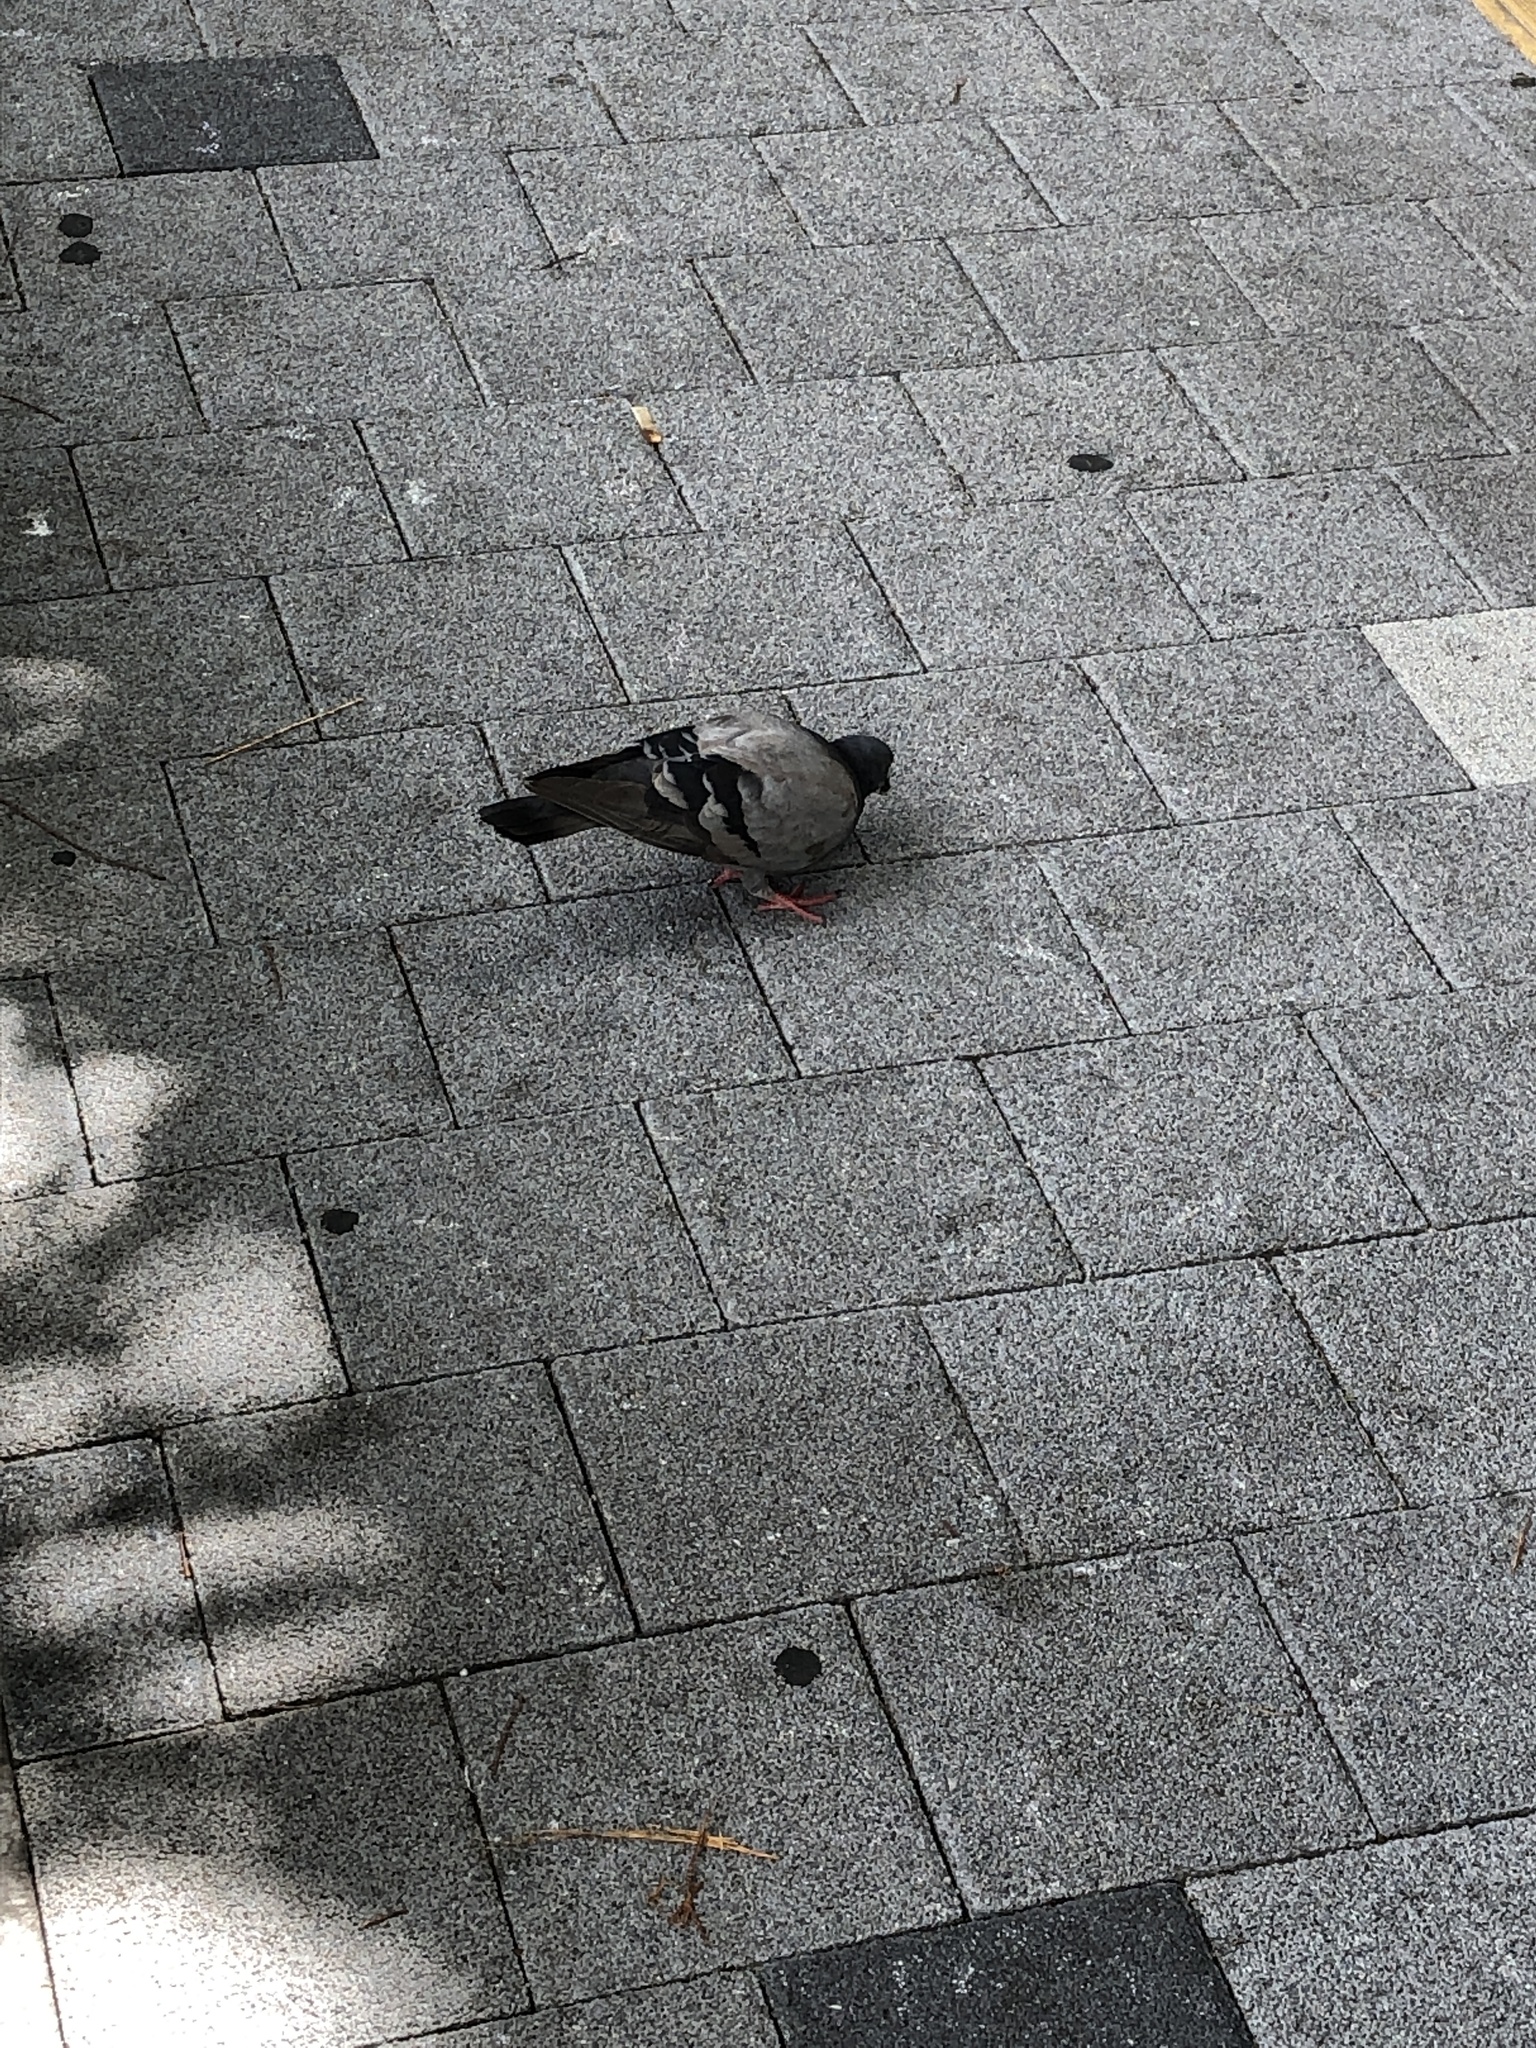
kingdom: Animalia
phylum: Chordata
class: Aves
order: Columbiformes
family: Columbidae
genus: Columba
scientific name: Columba livia
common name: Rock pigeon
